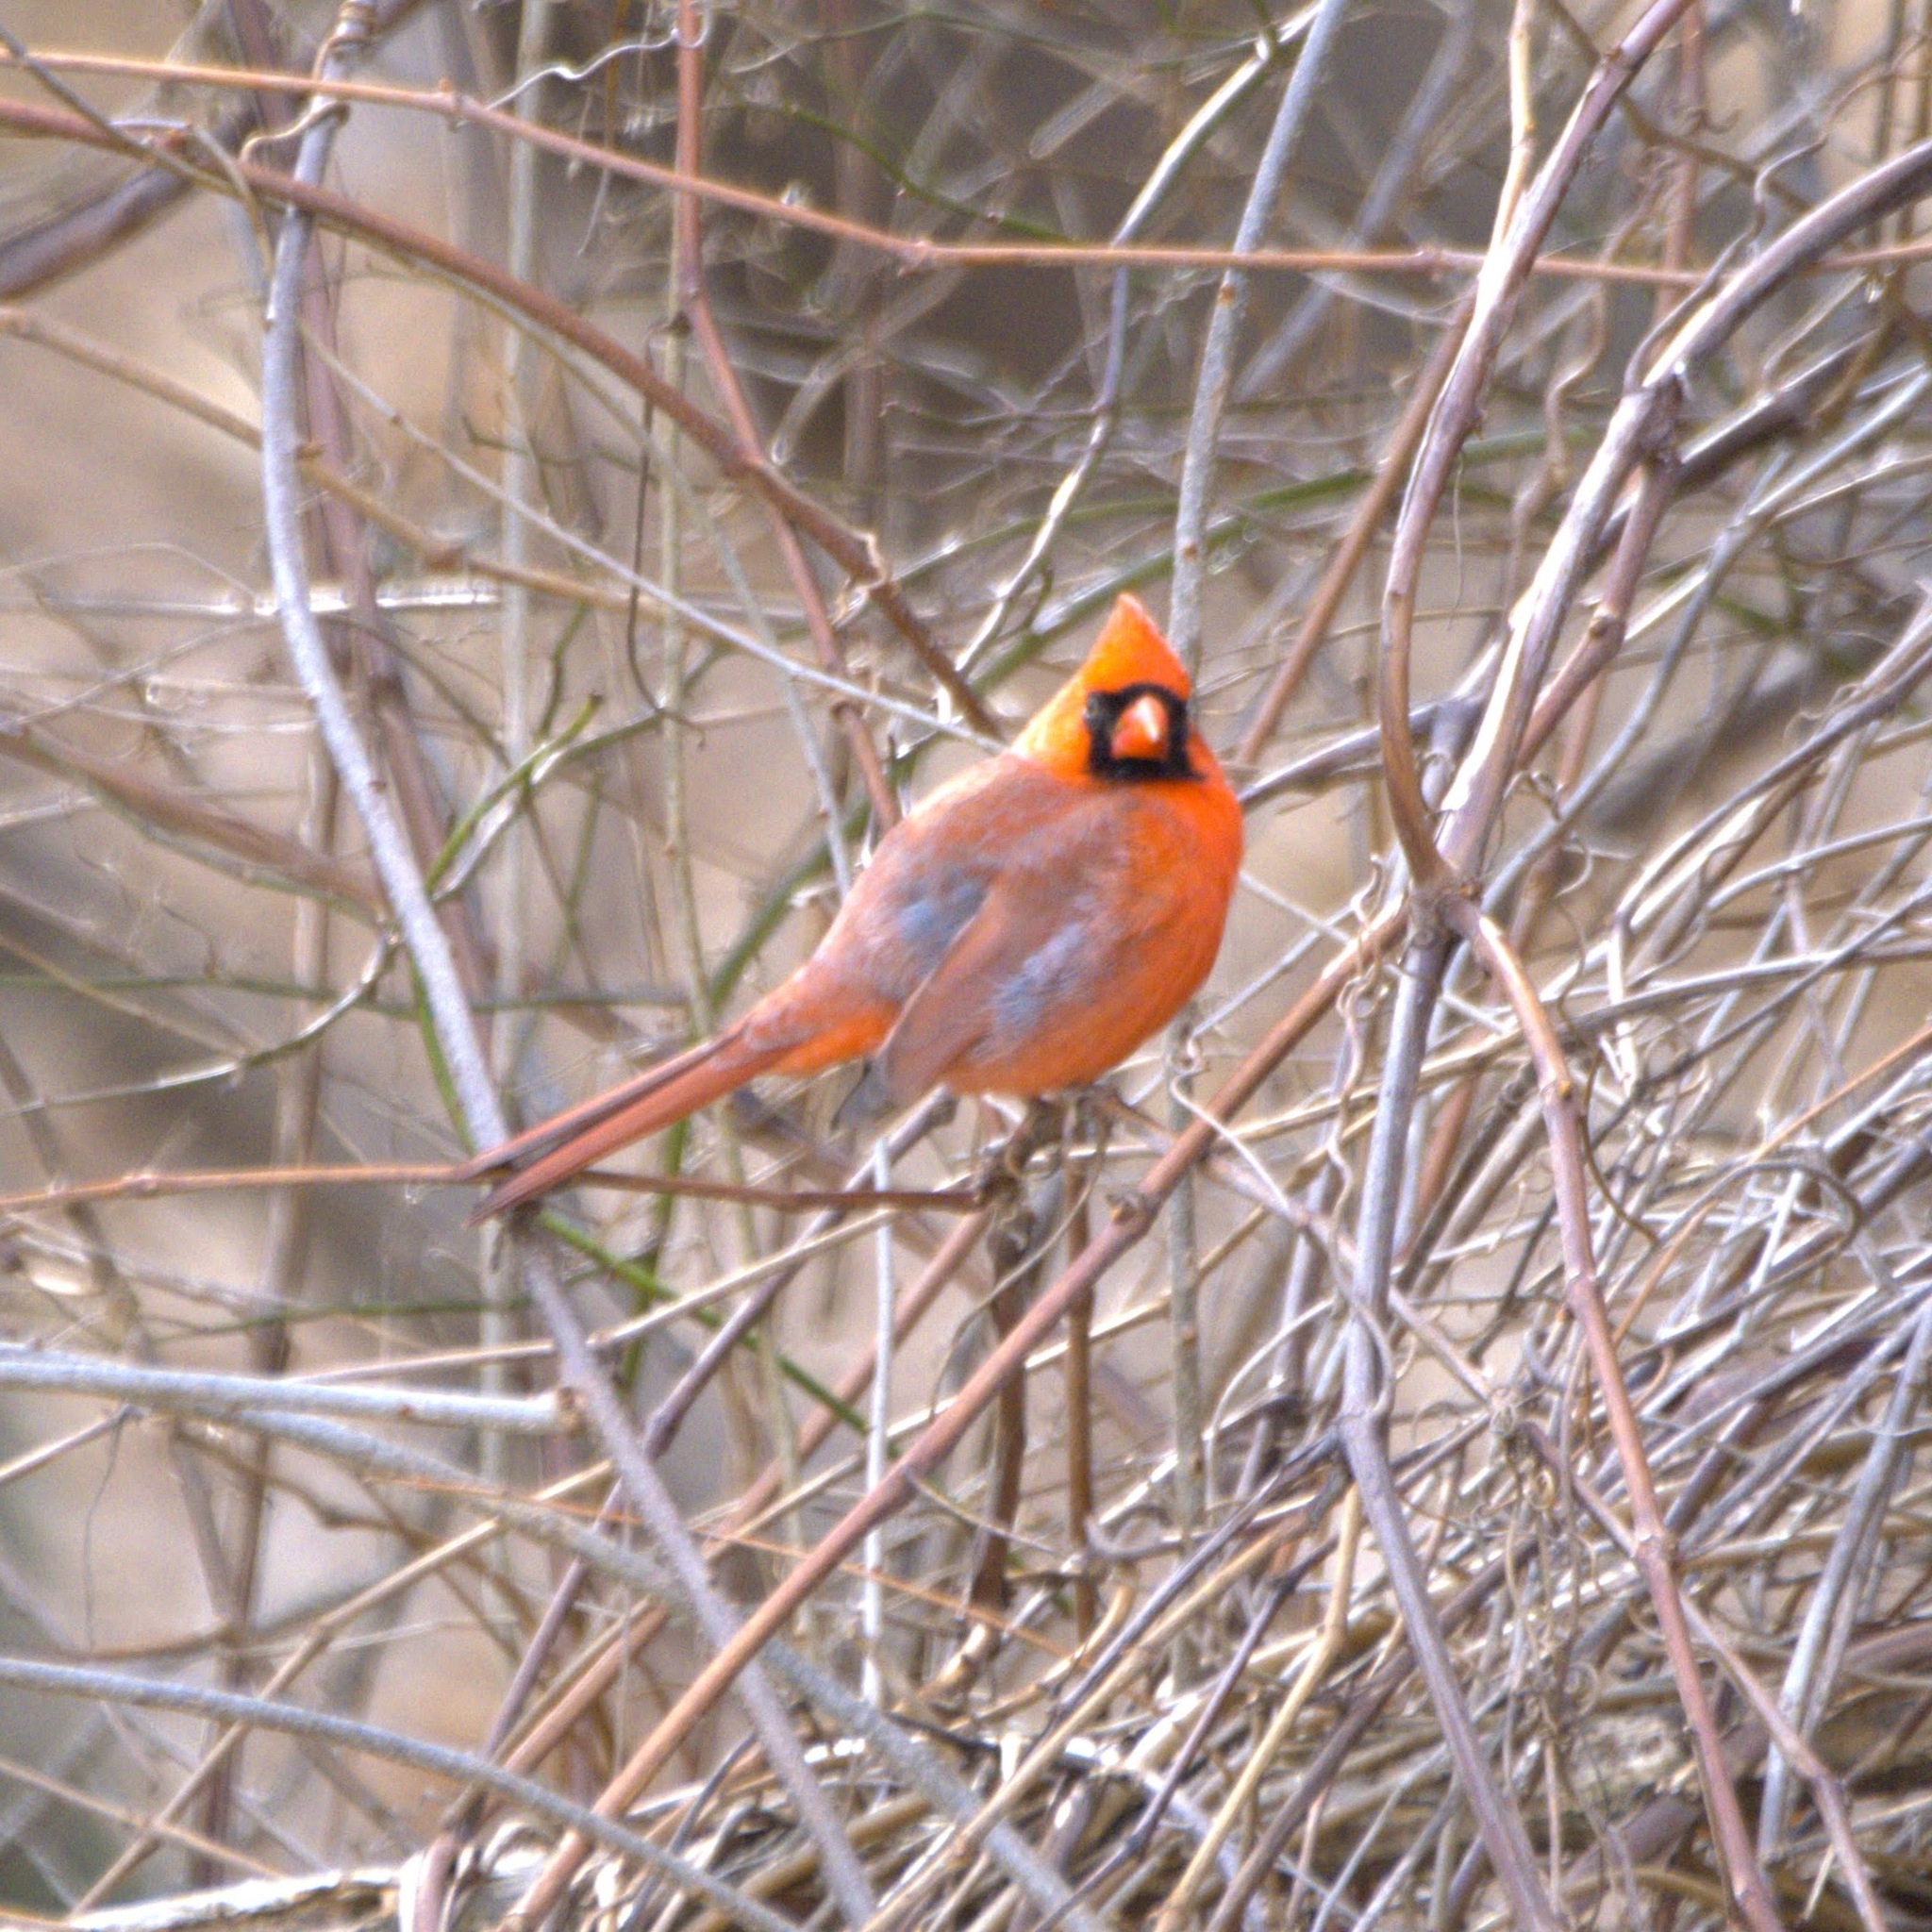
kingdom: Animalia
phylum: Chordata
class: Aves
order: Passeriformes
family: Cardinalidae
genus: Cardinalis
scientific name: Cardinalis cardinalis
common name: Northern cardinal
